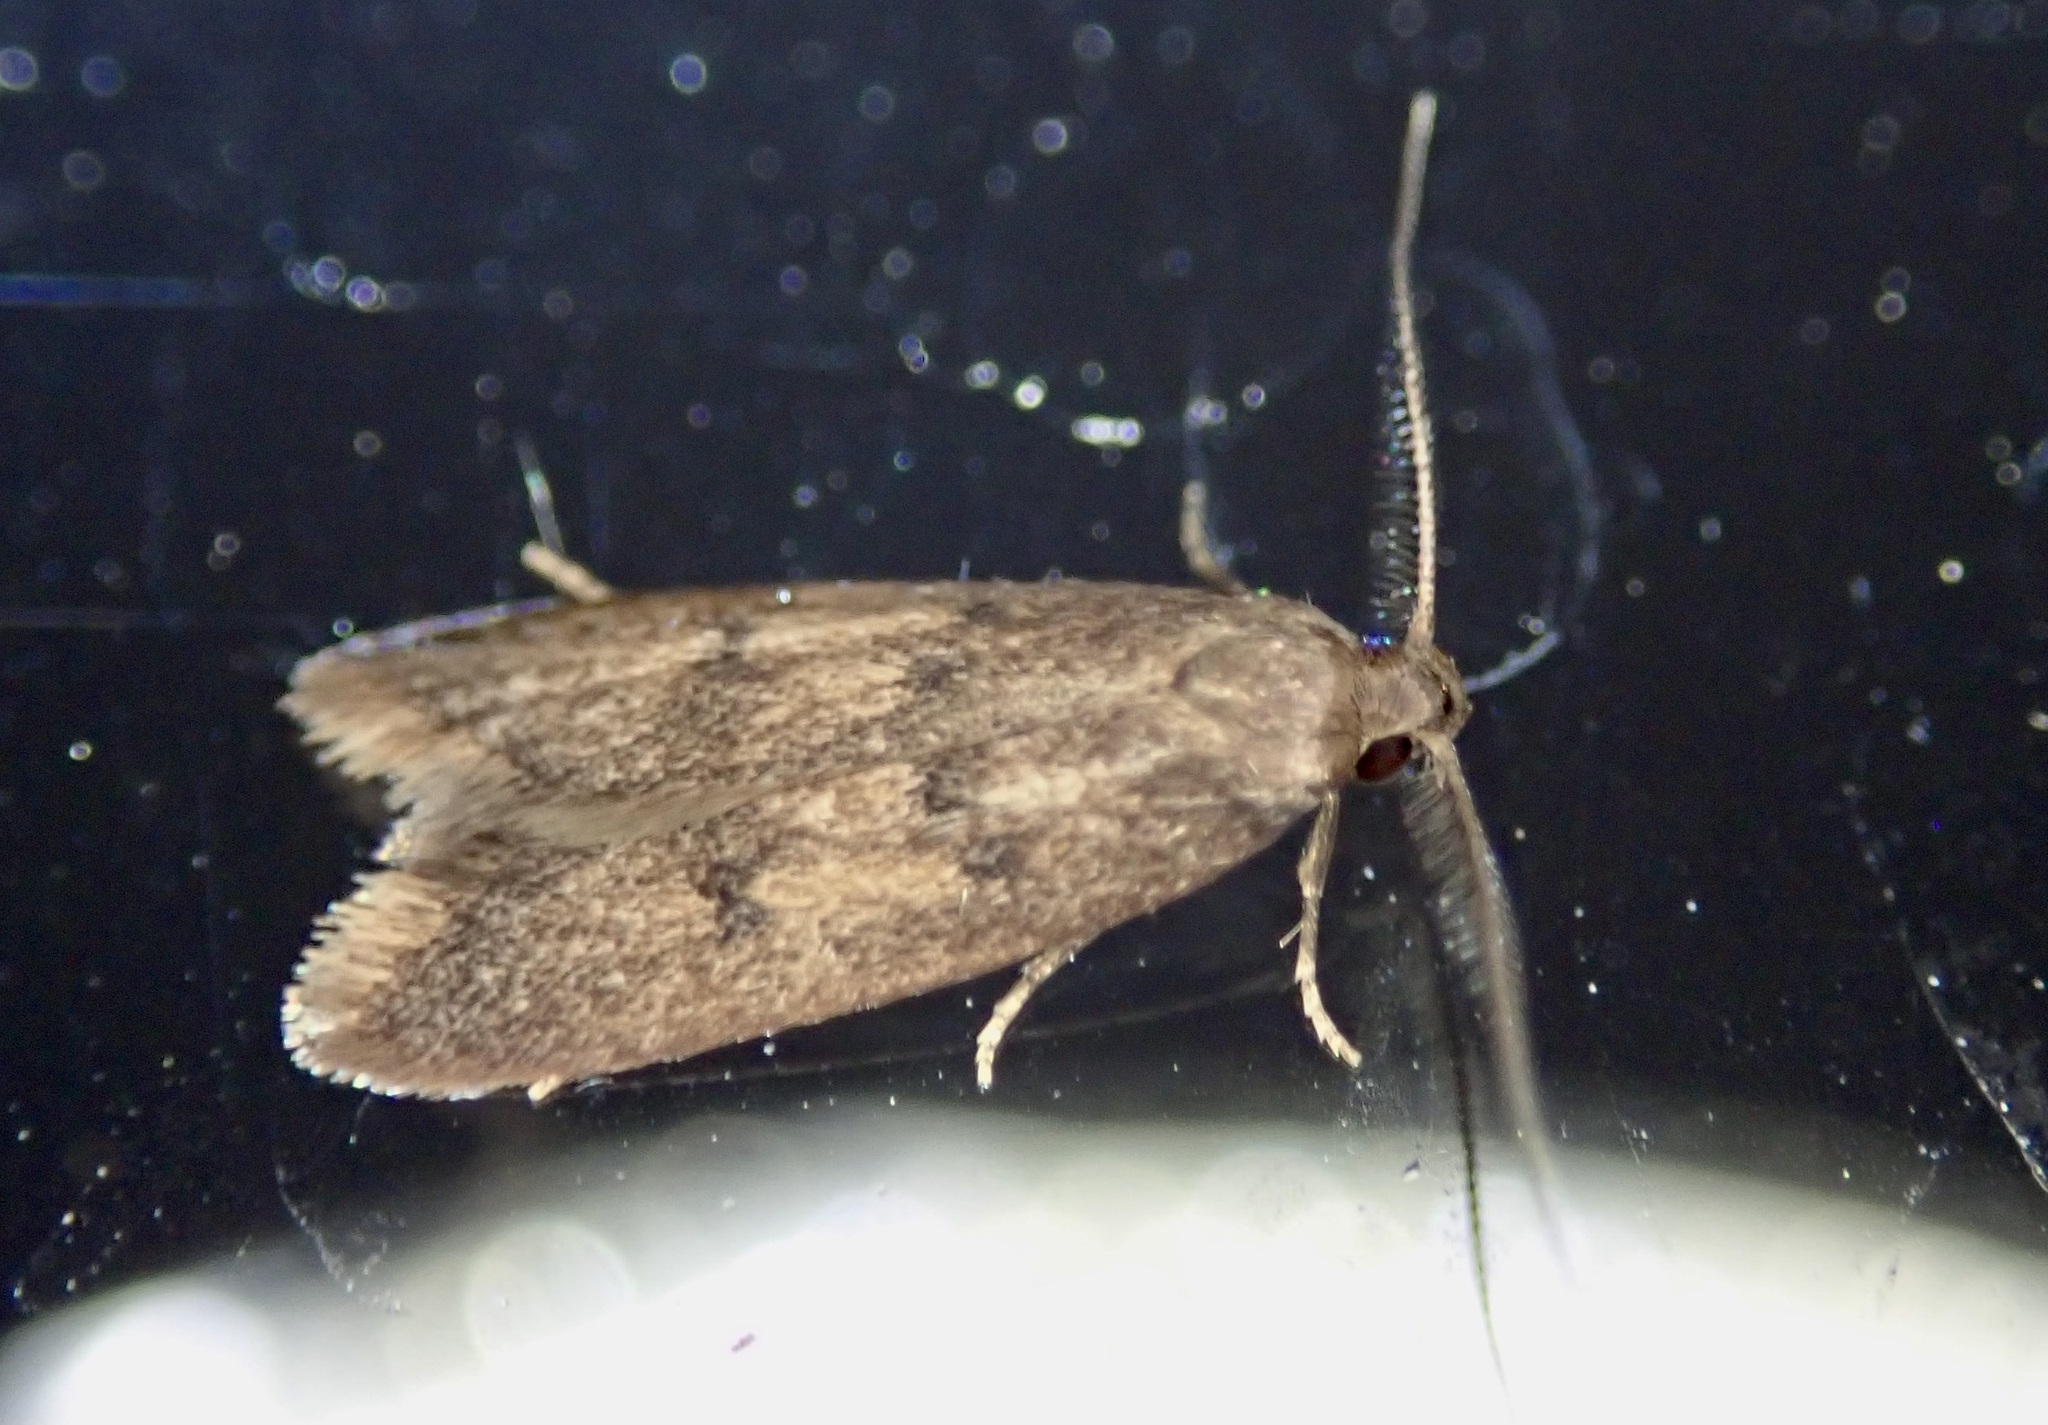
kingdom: Animalia
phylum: Arthropoda
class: Insecta
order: Lepidoptera
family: Oecophoridae
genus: Tachystola
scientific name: Tachystola acroxantha
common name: Ruddy streak
